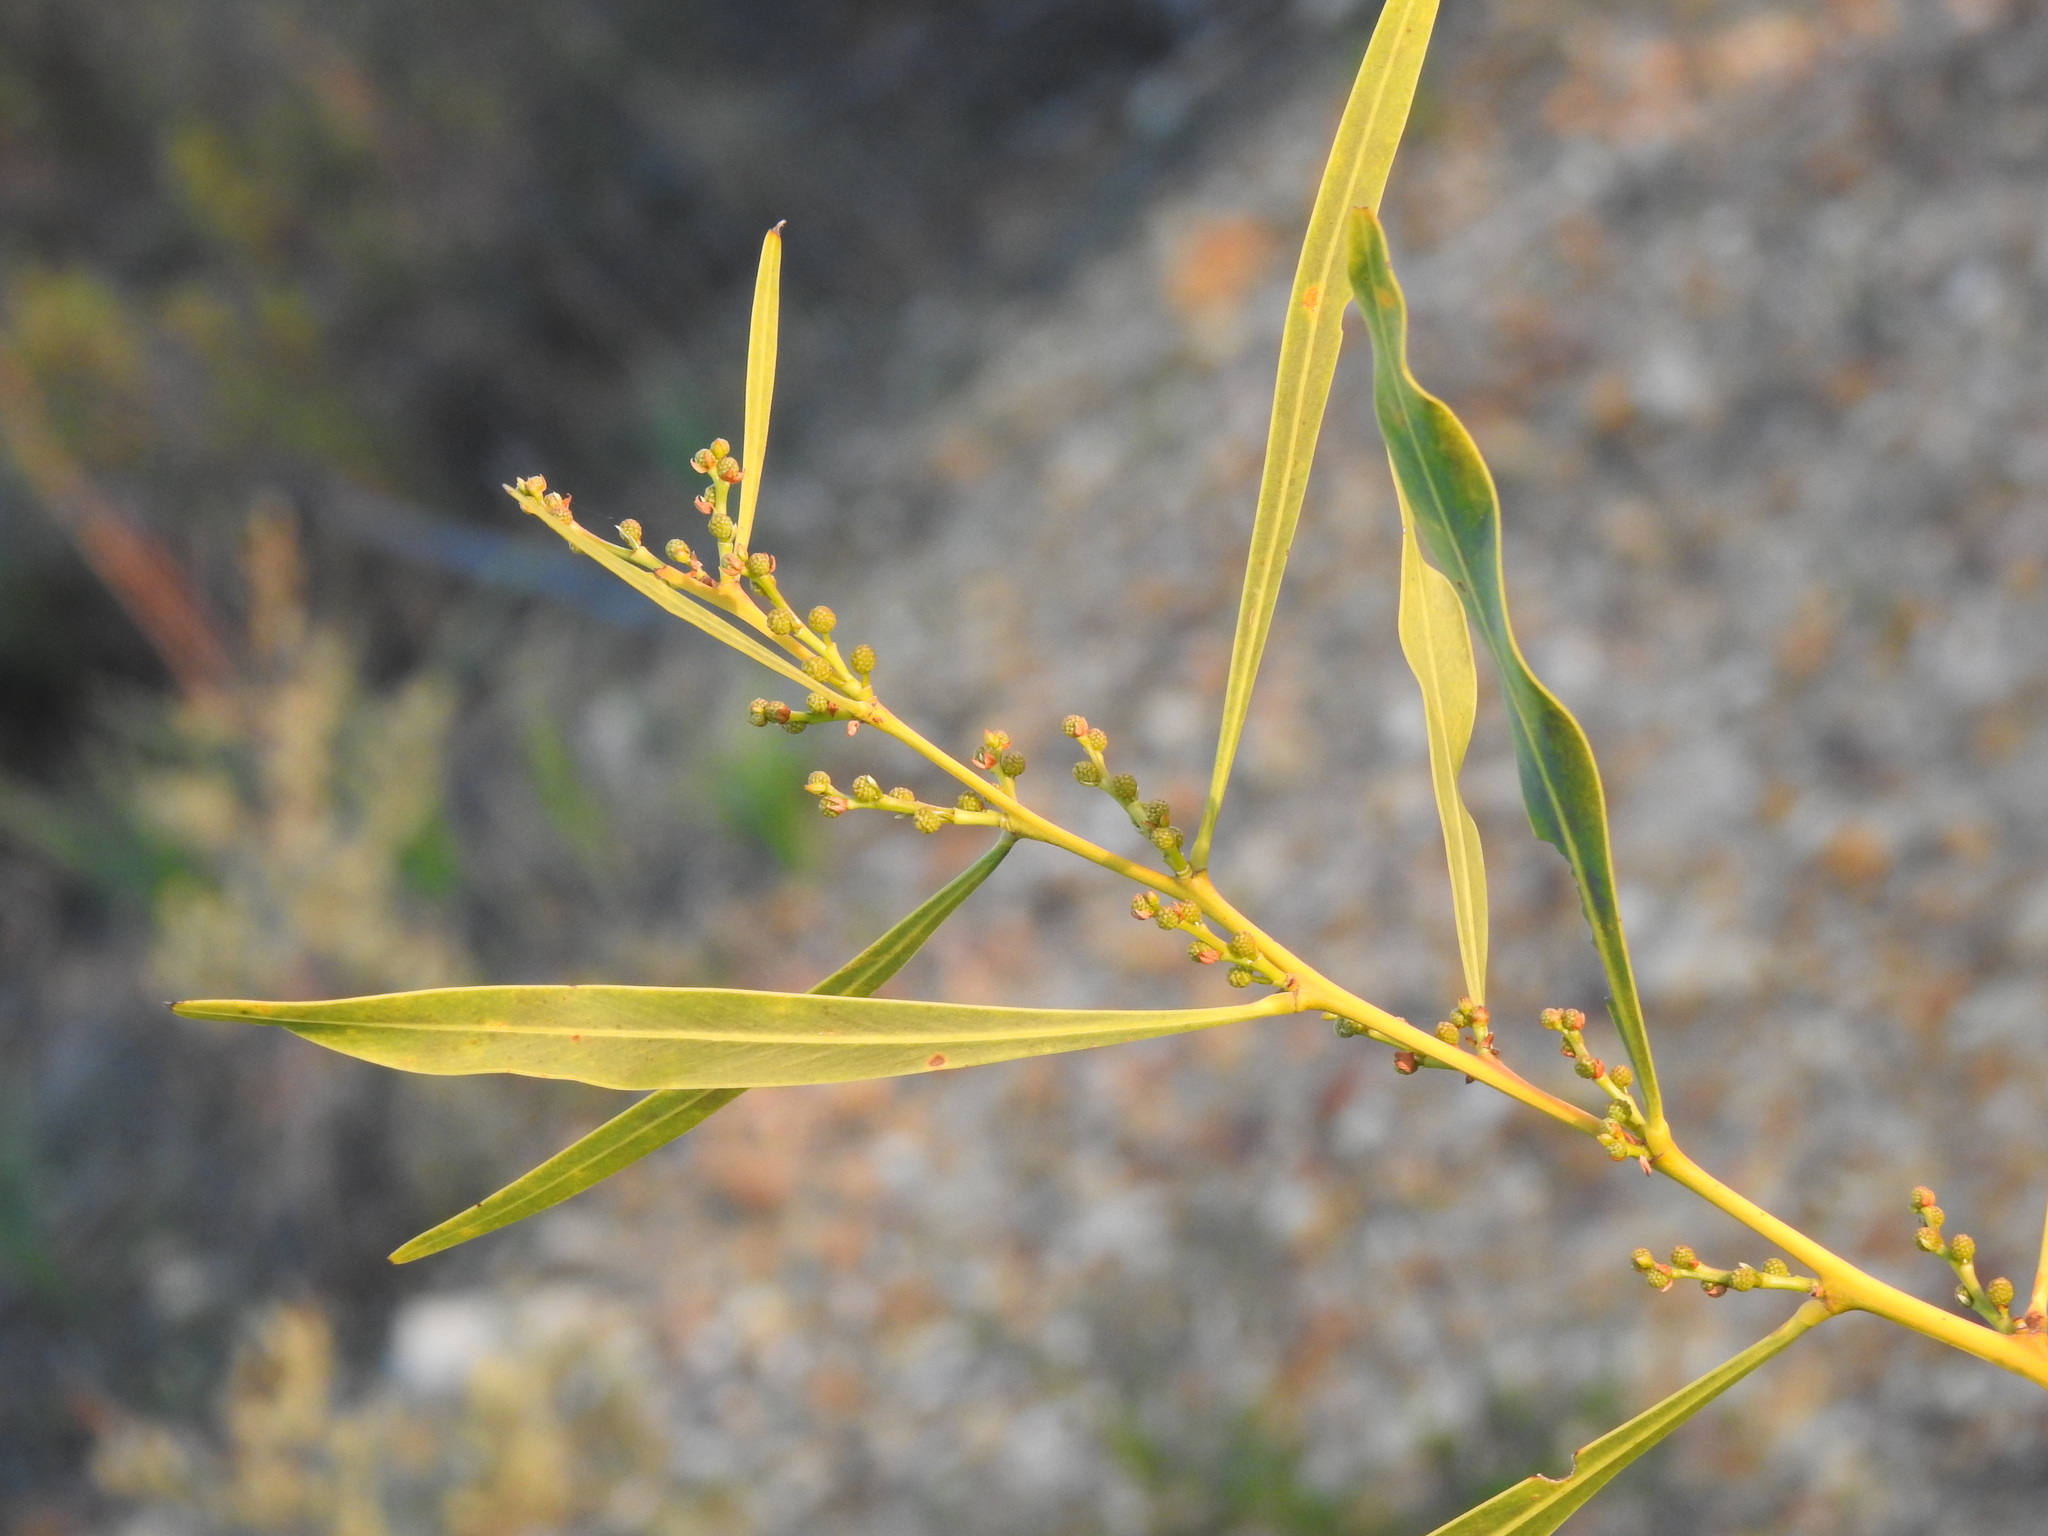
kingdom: Plantae
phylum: Tracheophyta
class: Magnoliopsida
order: Fabales
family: Fabaceae
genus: Acacia
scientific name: Acacia saligna
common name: Orange wattle
